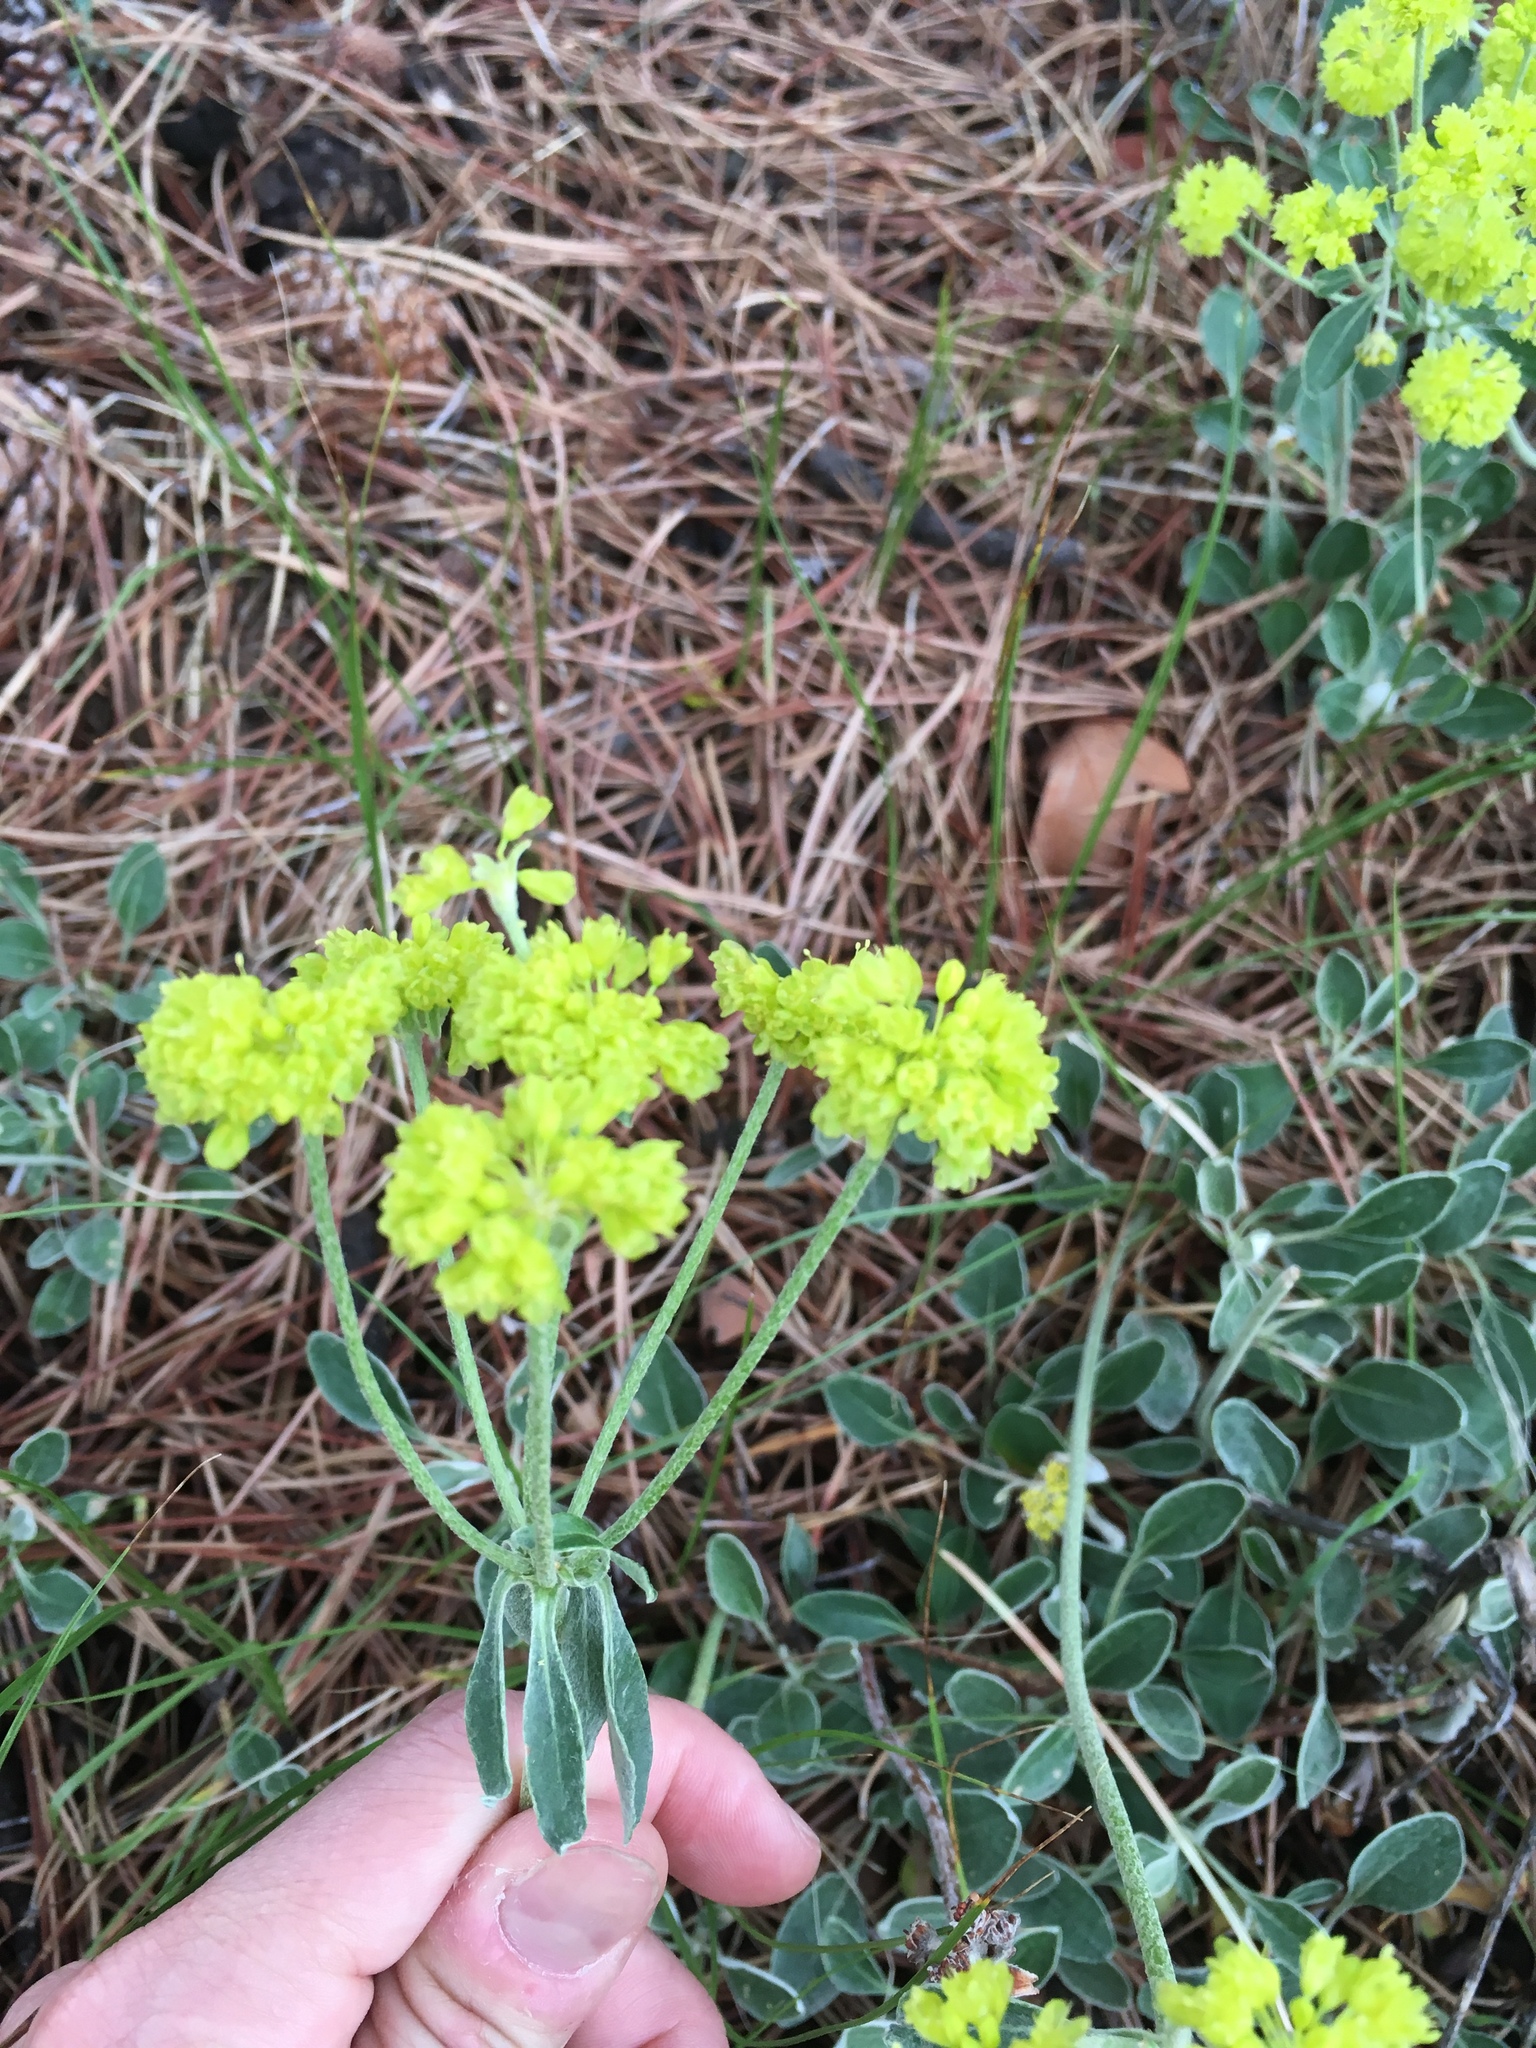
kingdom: Plantae
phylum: Tracheophyta
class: Magnoliopsida
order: Caryophyllales
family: Polygonaceae
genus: Eriogonum
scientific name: Eriogonum umbellatum
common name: Sulfur-buckwheat
